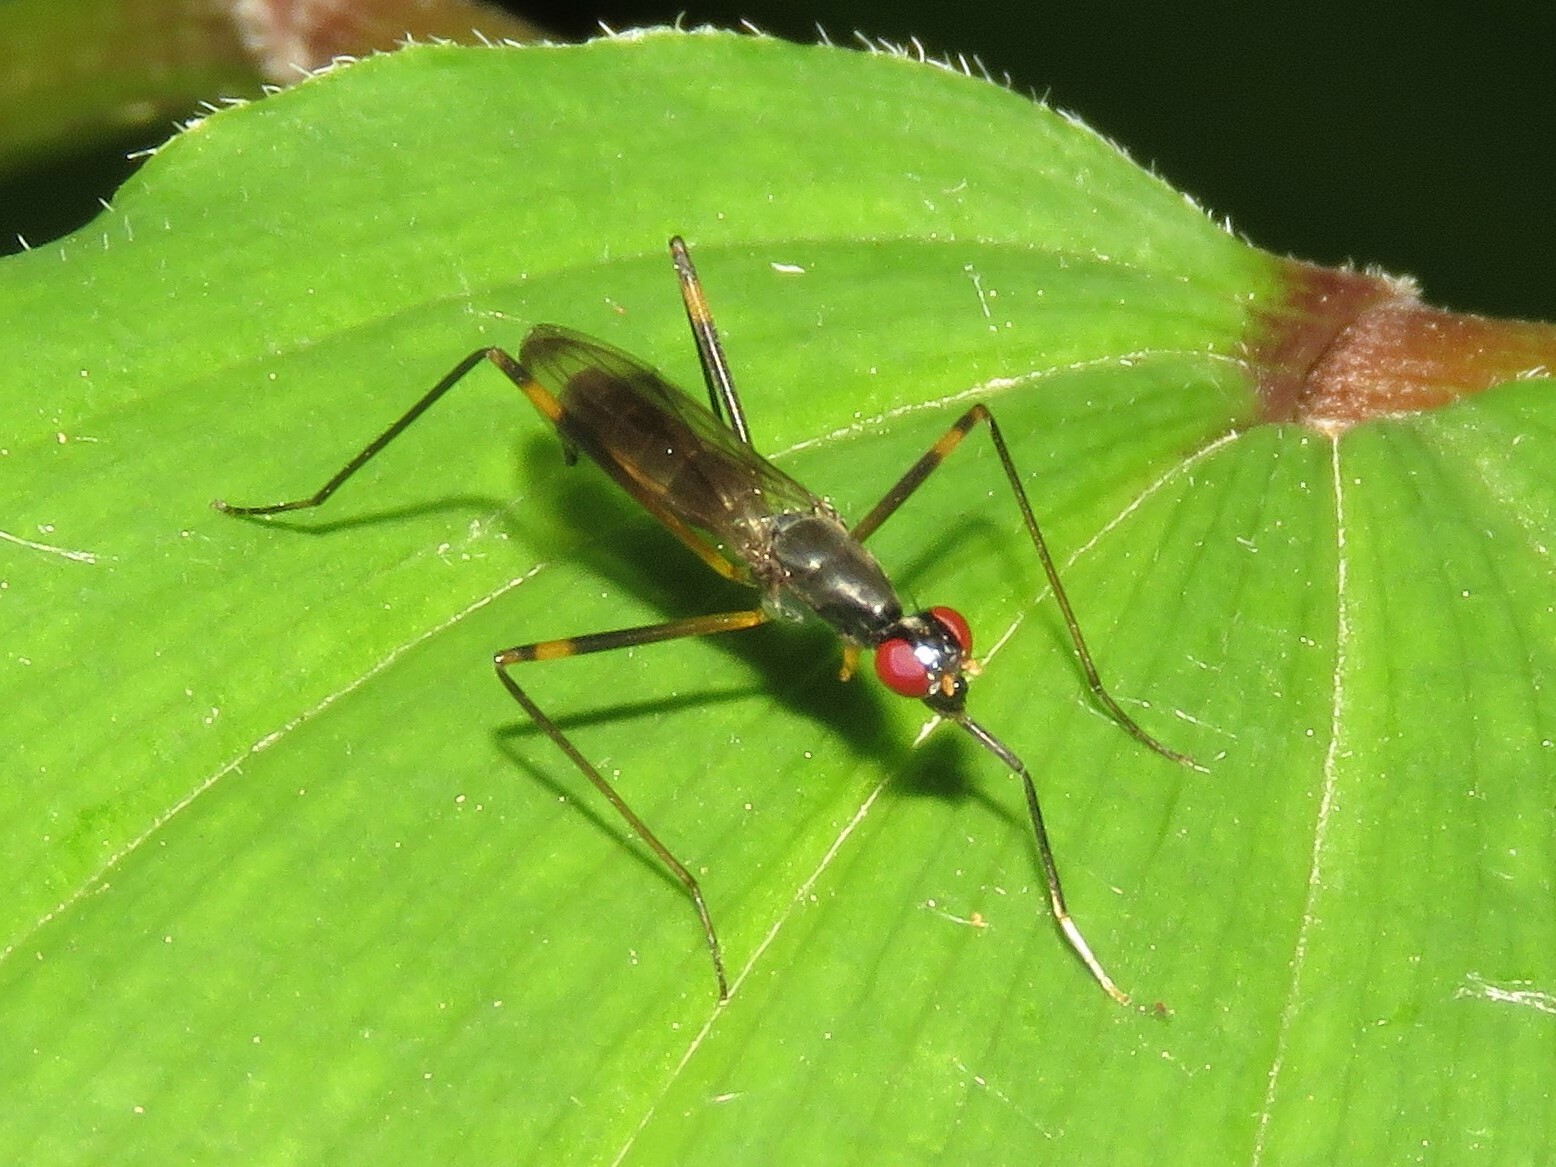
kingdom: Animalia
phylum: Arthropoda
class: Insecta
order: Diptera
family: Micropezidae
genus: Rainieria
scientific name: Rainieria antennaepes
